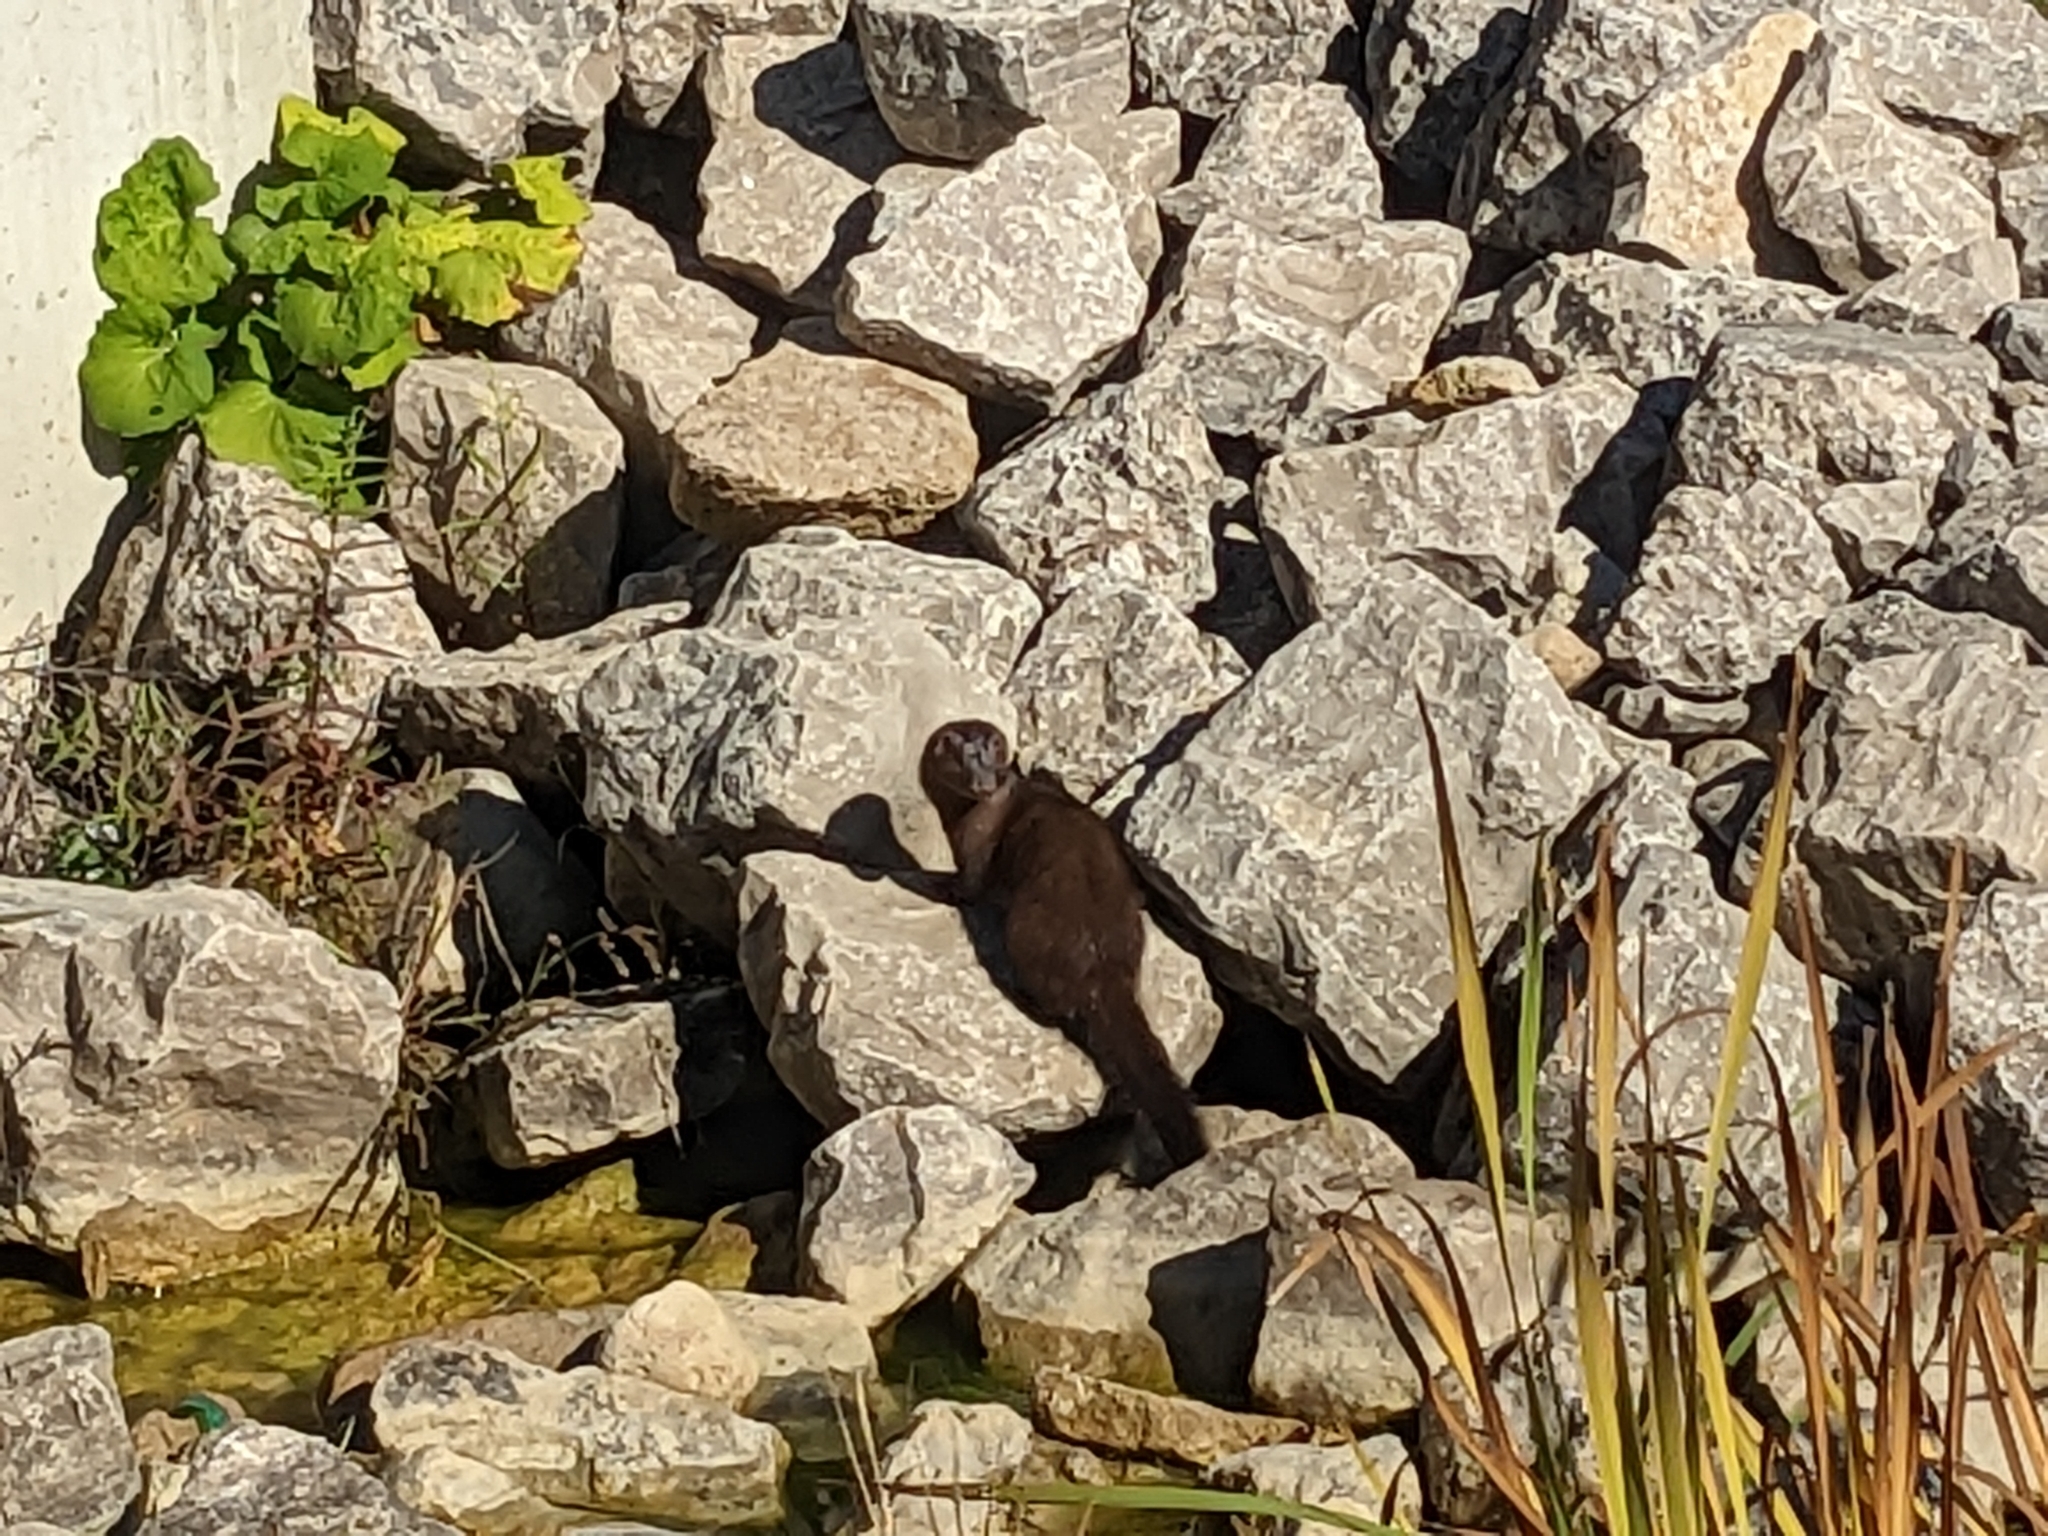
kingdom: Animalia
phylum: Chordata
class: Mammalia
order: Carnivora
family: Mustelidae
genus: Mustela
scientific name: Mustela
